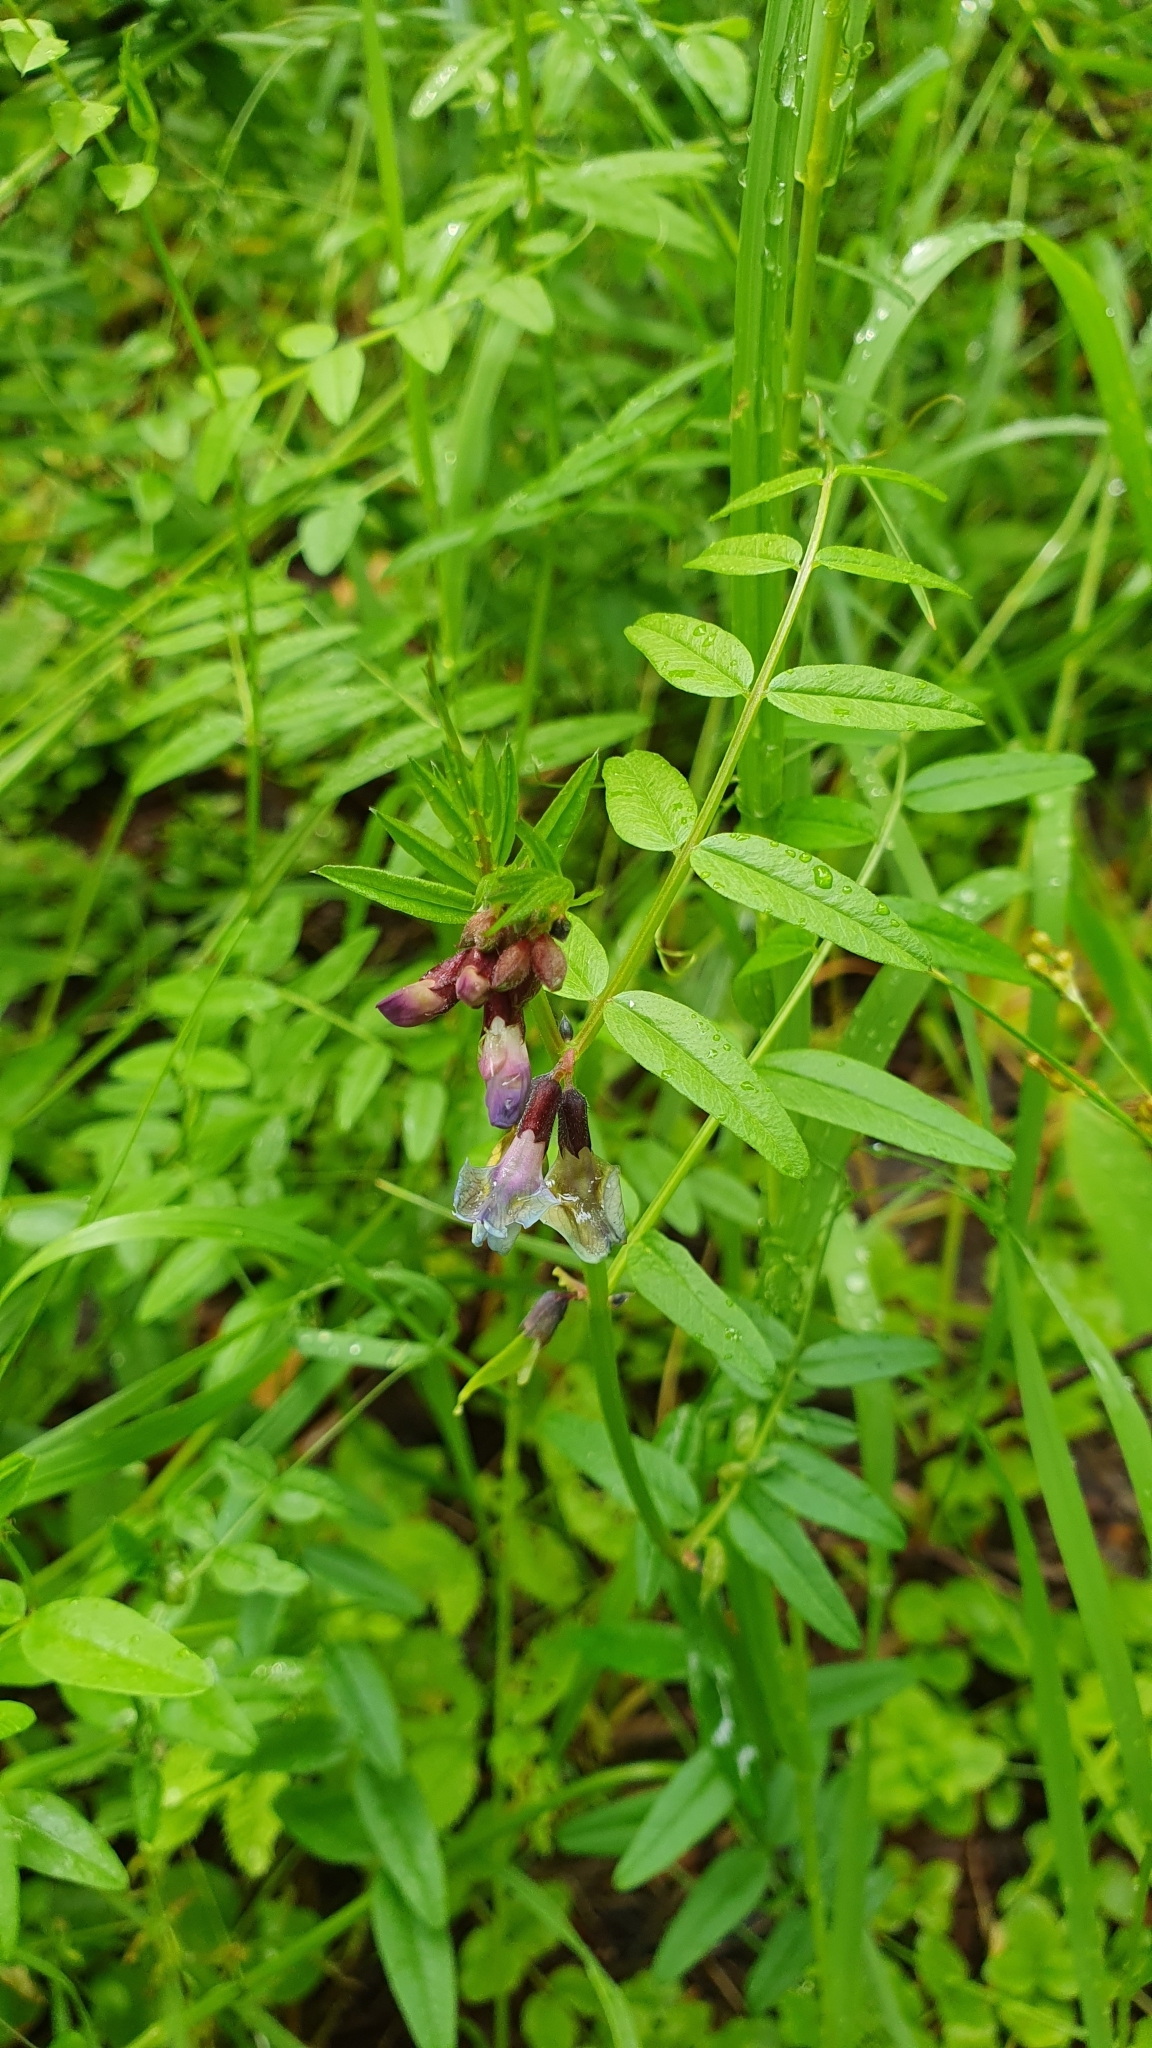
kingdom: Plantae
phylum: Tracheophyta
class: Magnoliopsida
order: Fabales
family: Fabaceae
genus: Vicia
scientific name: Vicia sepium
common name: Bush vetch
